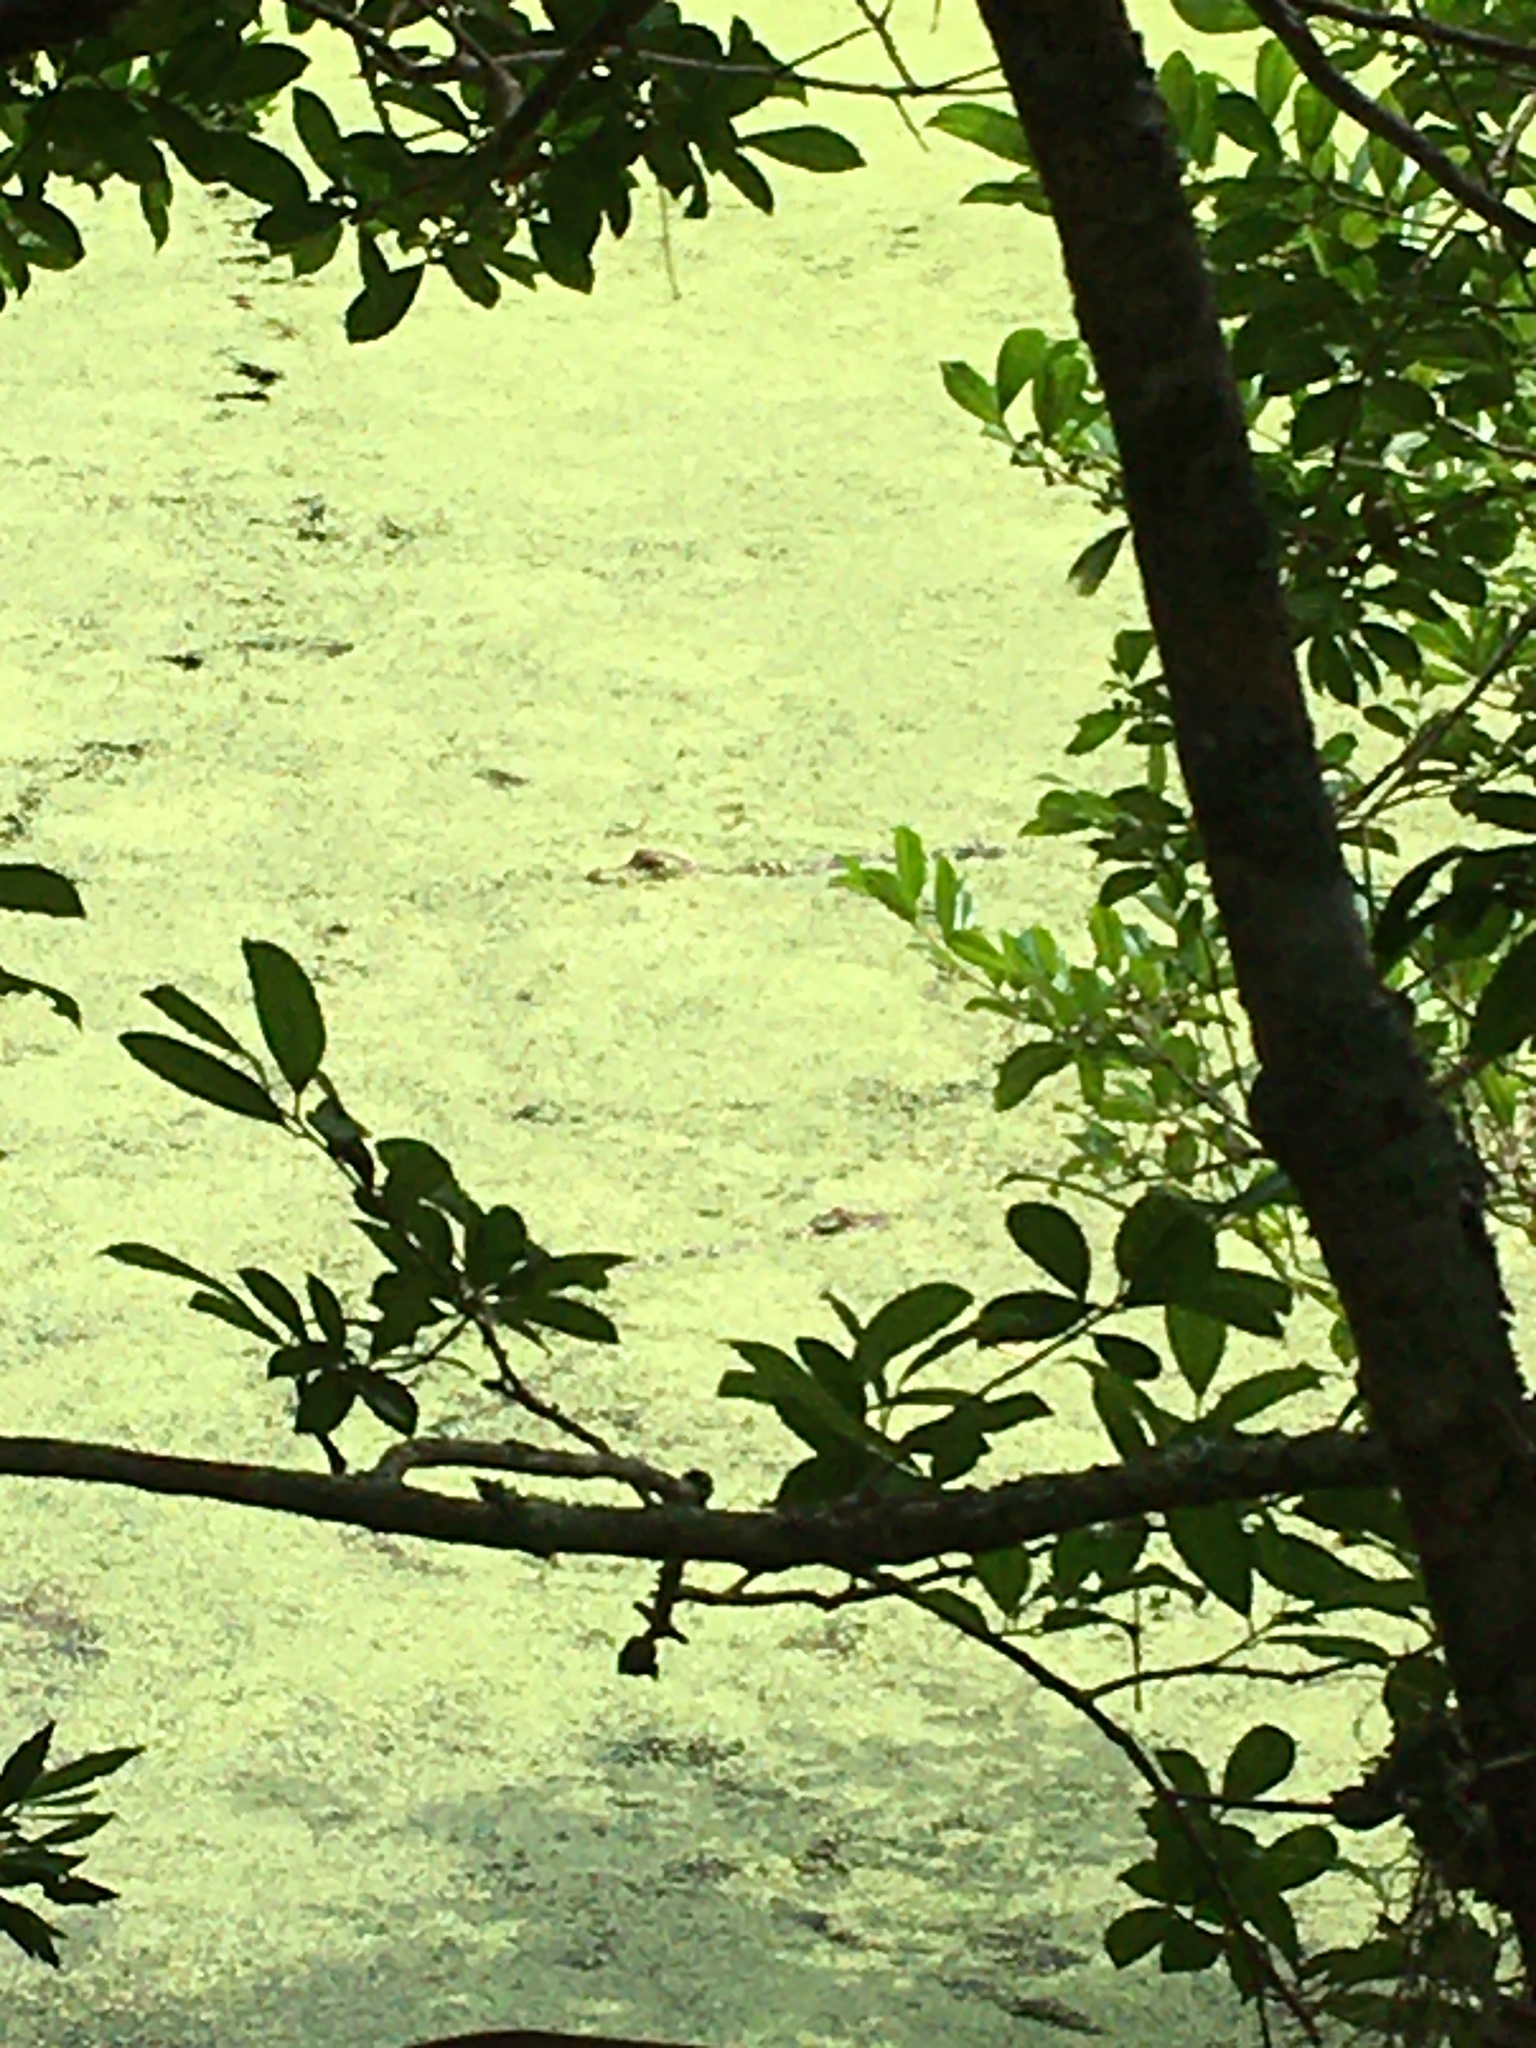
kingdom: Animalia
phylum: Chordata
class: Crocodylia
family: Alligatoridae
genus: Alligator
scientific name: Alligator mississippiensis
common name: American alligator
